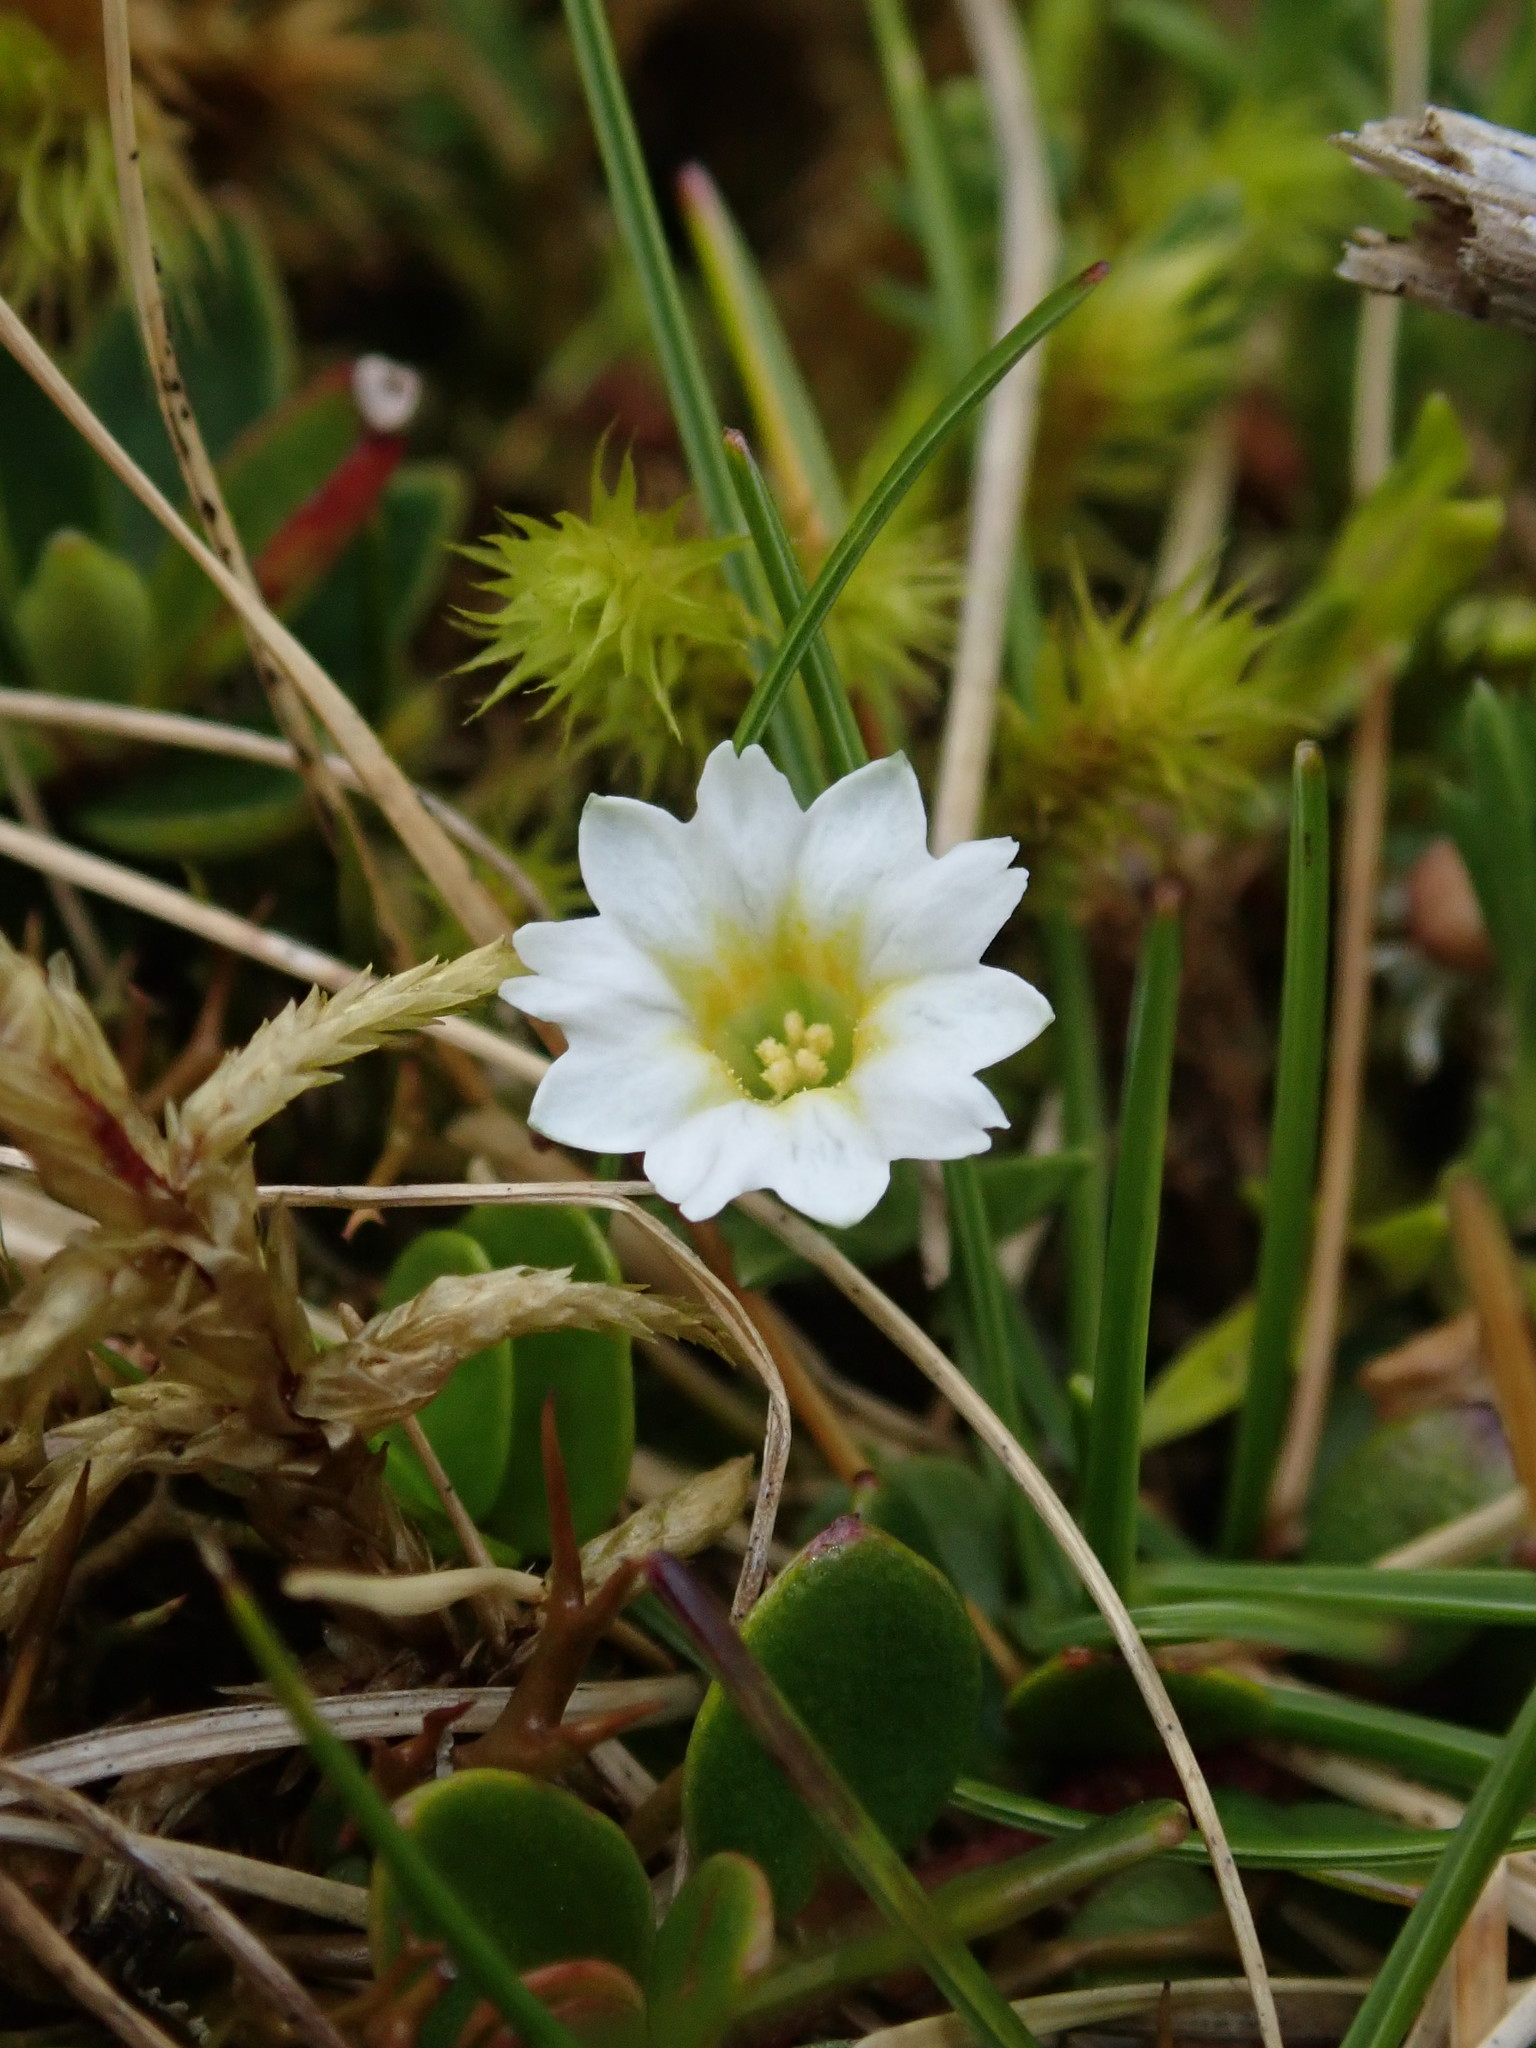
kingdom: Plantae
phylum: Tracheophyta
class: Magnoliopsida
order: Gentianales
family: Gentianaceae
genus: Gentiana
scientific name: Gentiana sedifolia
